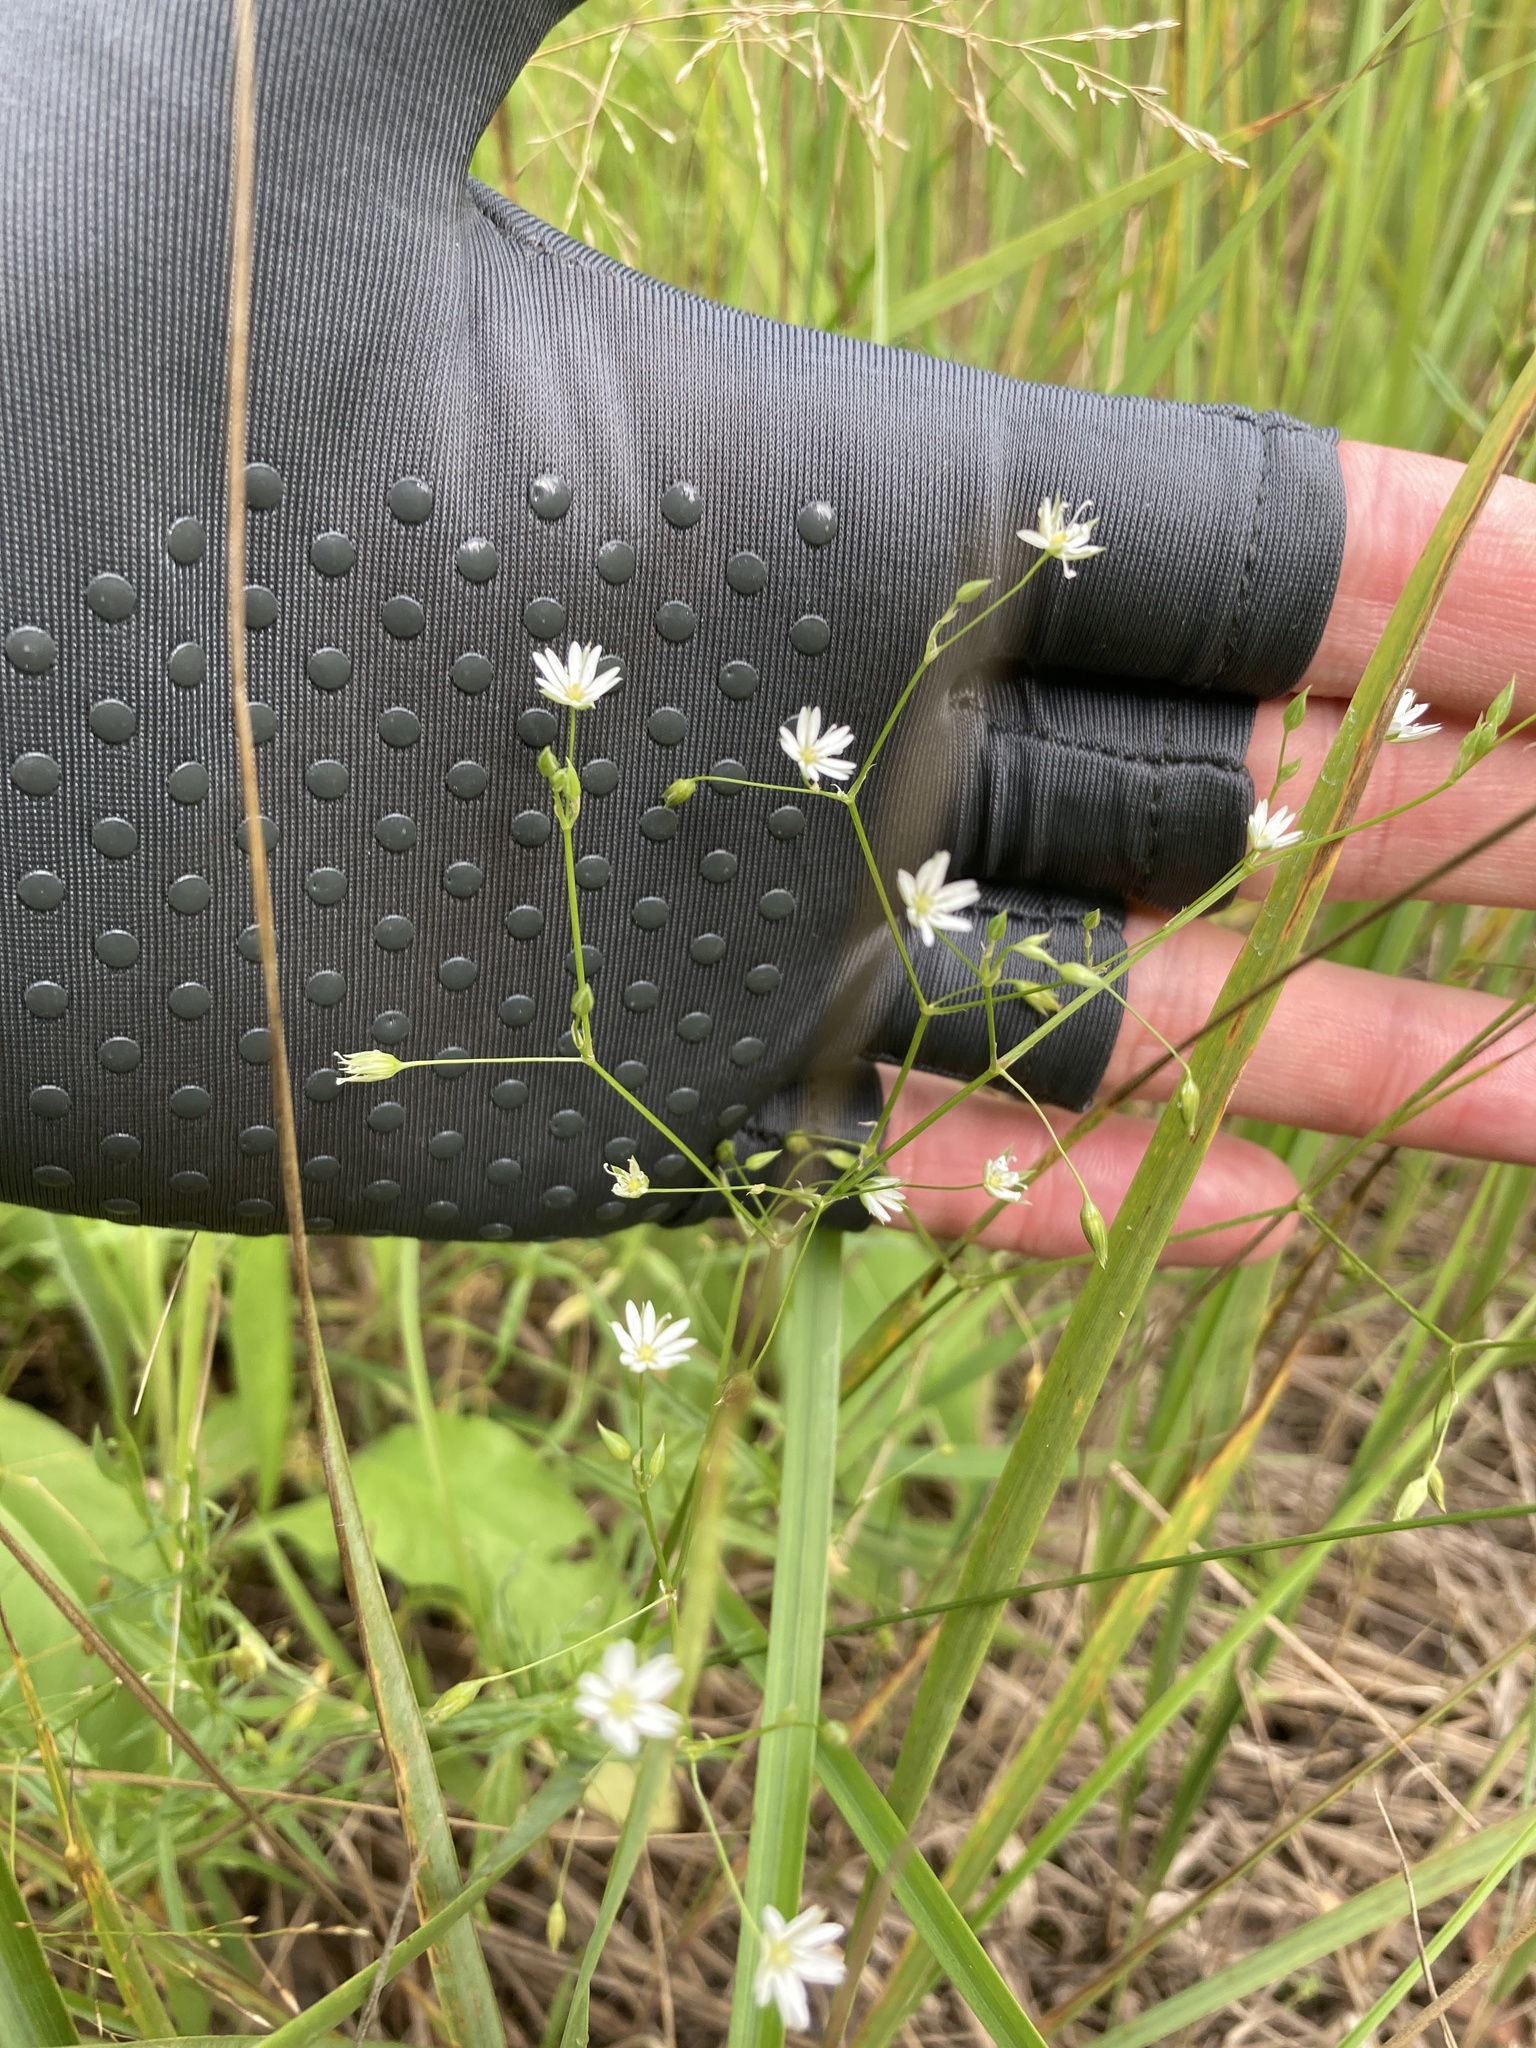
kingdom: Plantae
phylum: Tracheophyta
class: Magnoliopsida
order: Caryophyllales
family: Caryophyllaceae
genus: Stellaria
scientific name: Stellaria graminea
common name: Grass-like starwort
